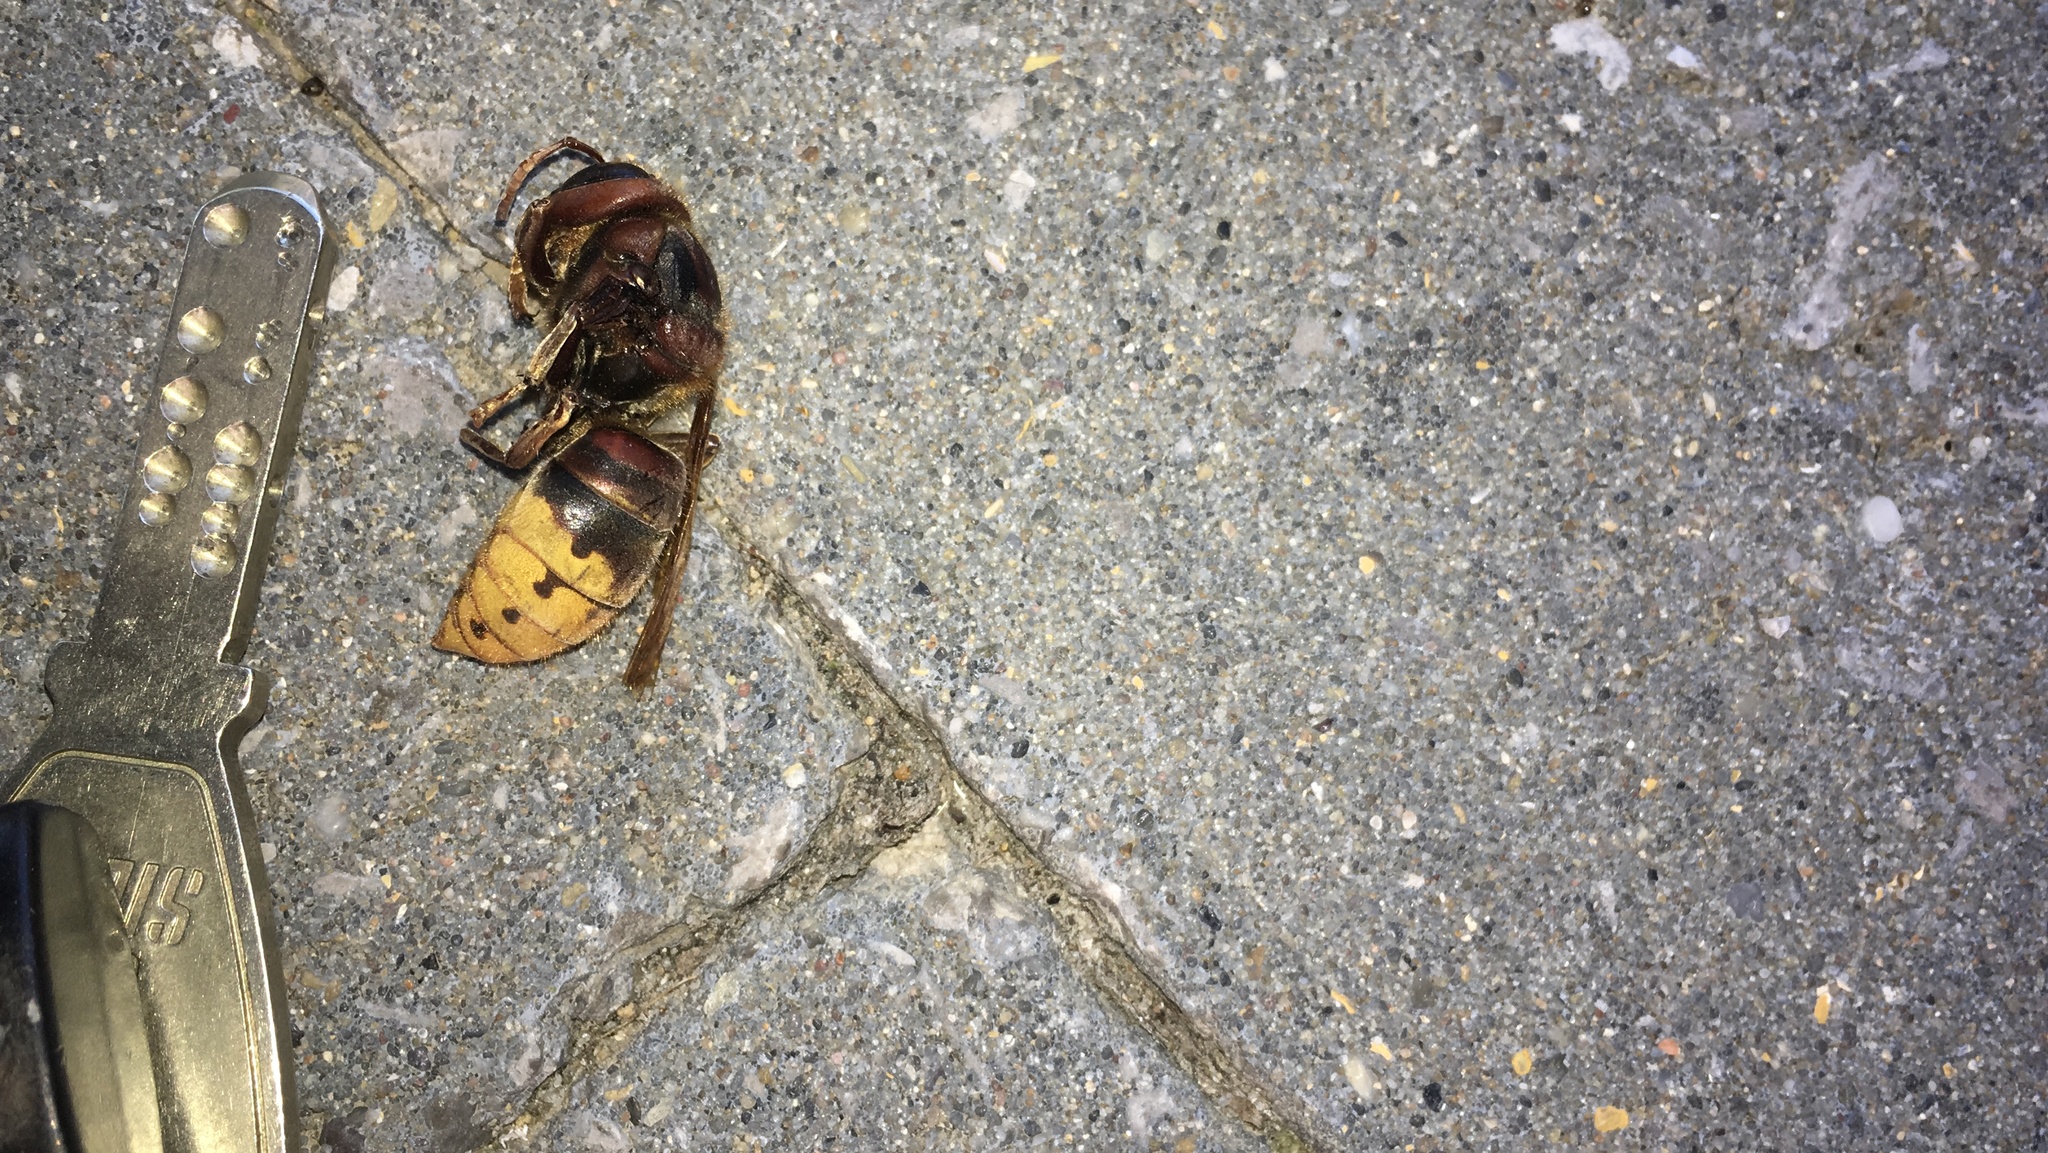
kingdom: Animalia
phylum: Arthropoda
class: Insecta
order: Hymenoptera
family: Vespidae
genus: Vespa
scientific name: Vespa crabro
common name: Hornet
